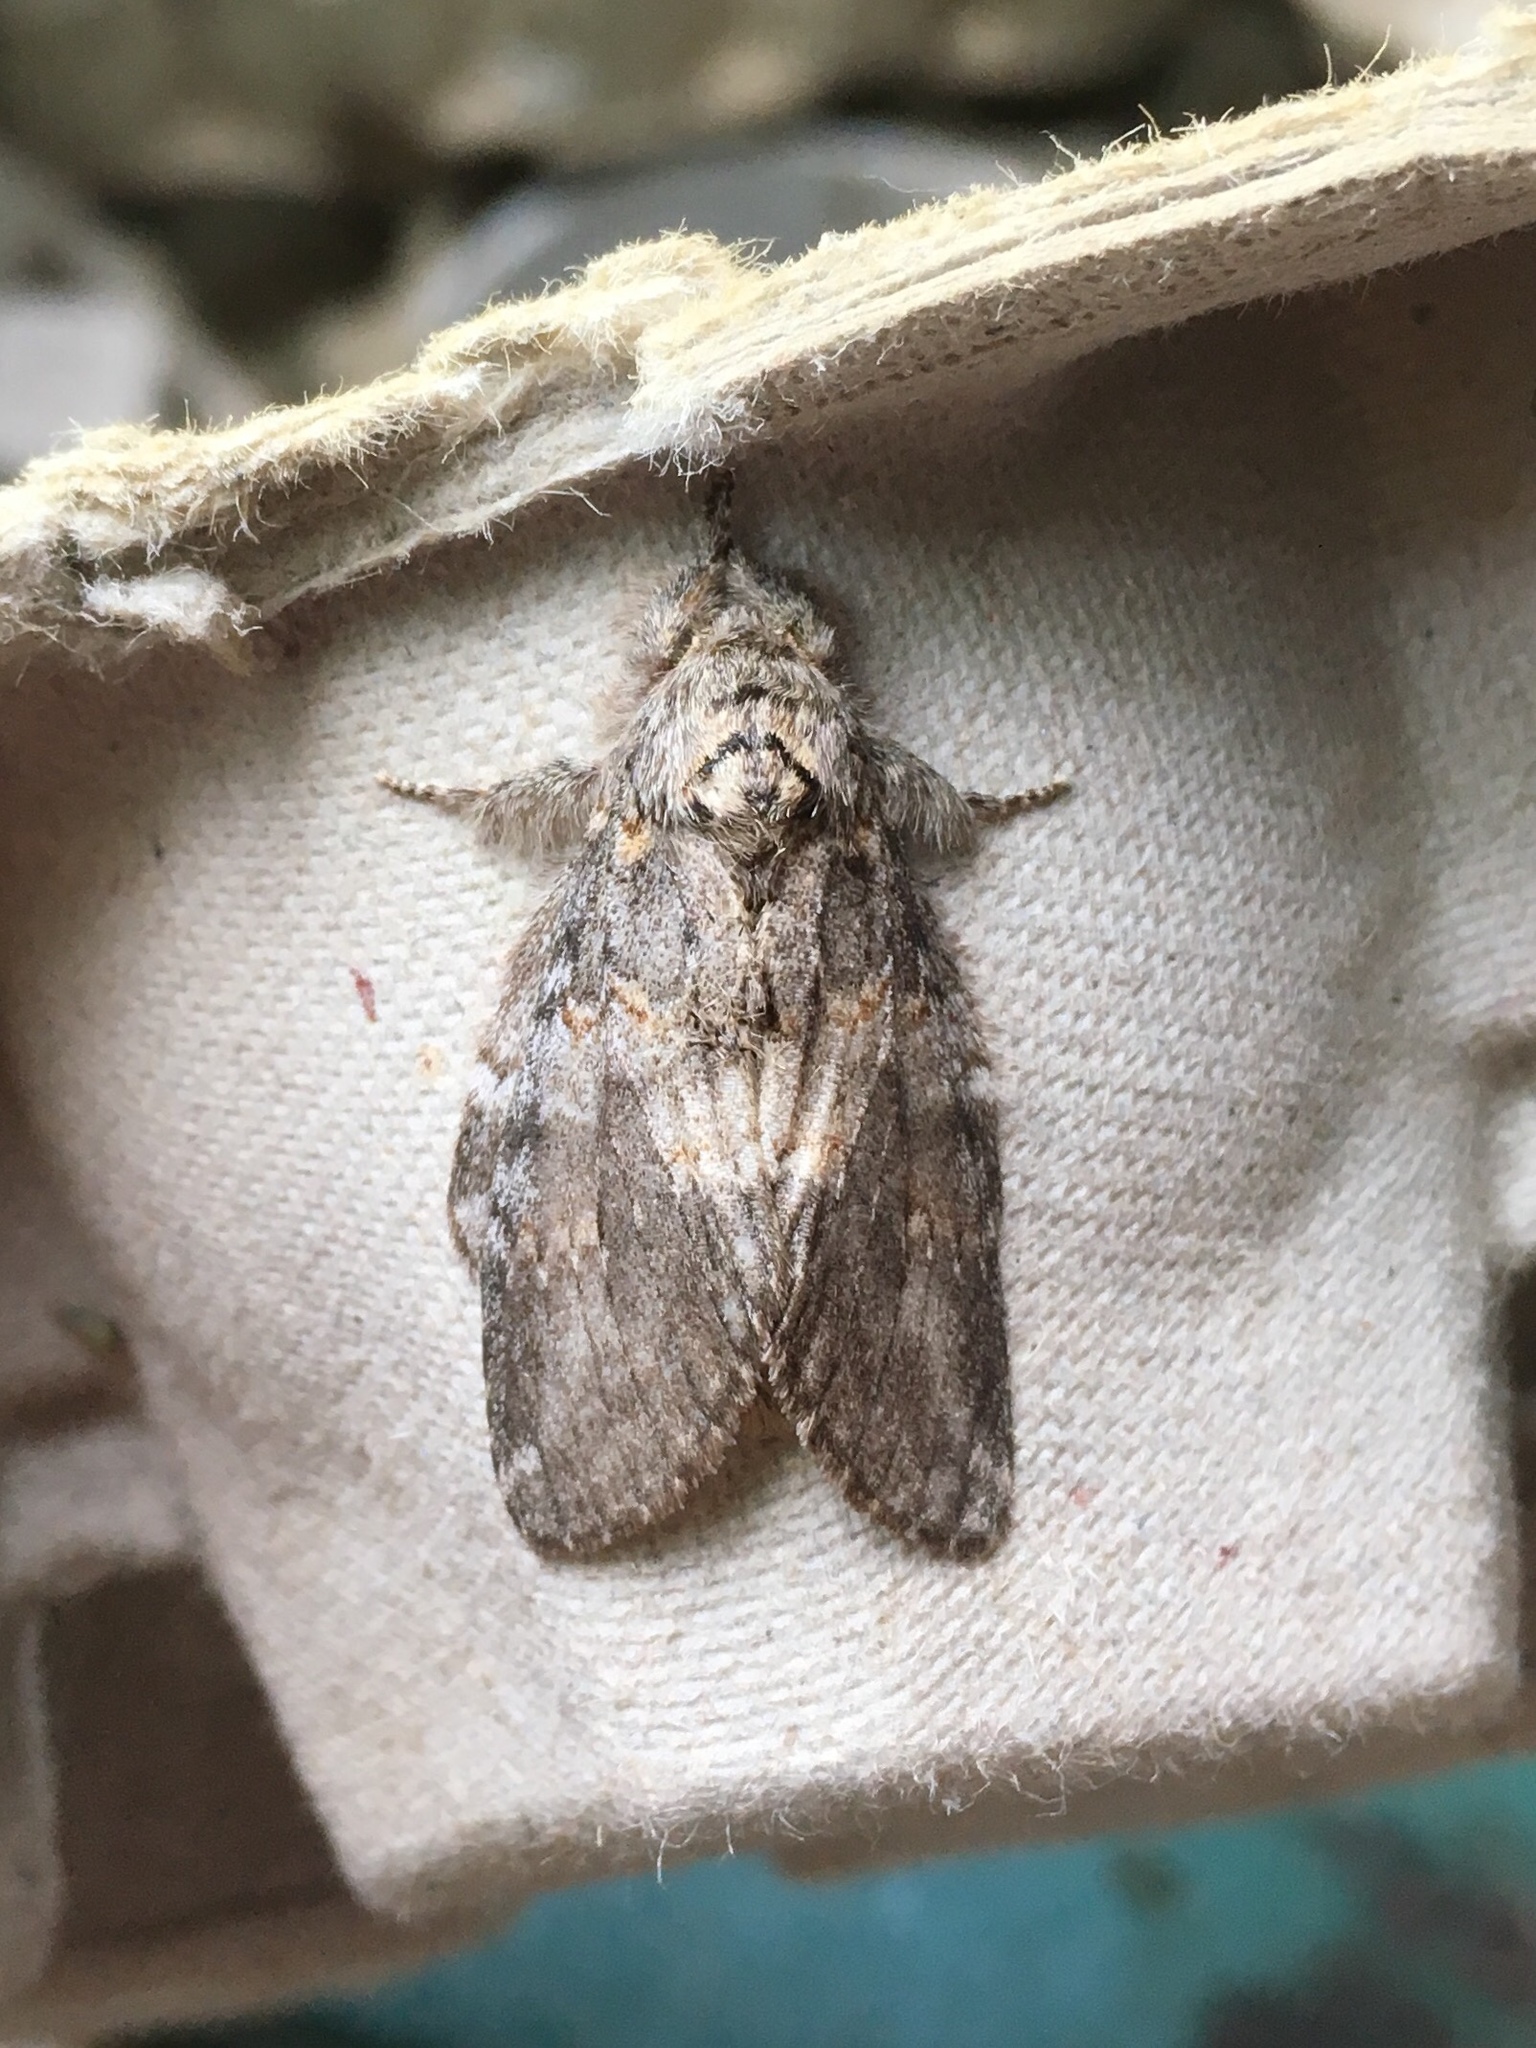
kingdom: Animalia
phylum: Arthropoda
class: Insecta
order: Lepidoptera
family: Notodontidae
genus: Peridea
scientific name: Peridea angulosa
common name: Angulose prominent
